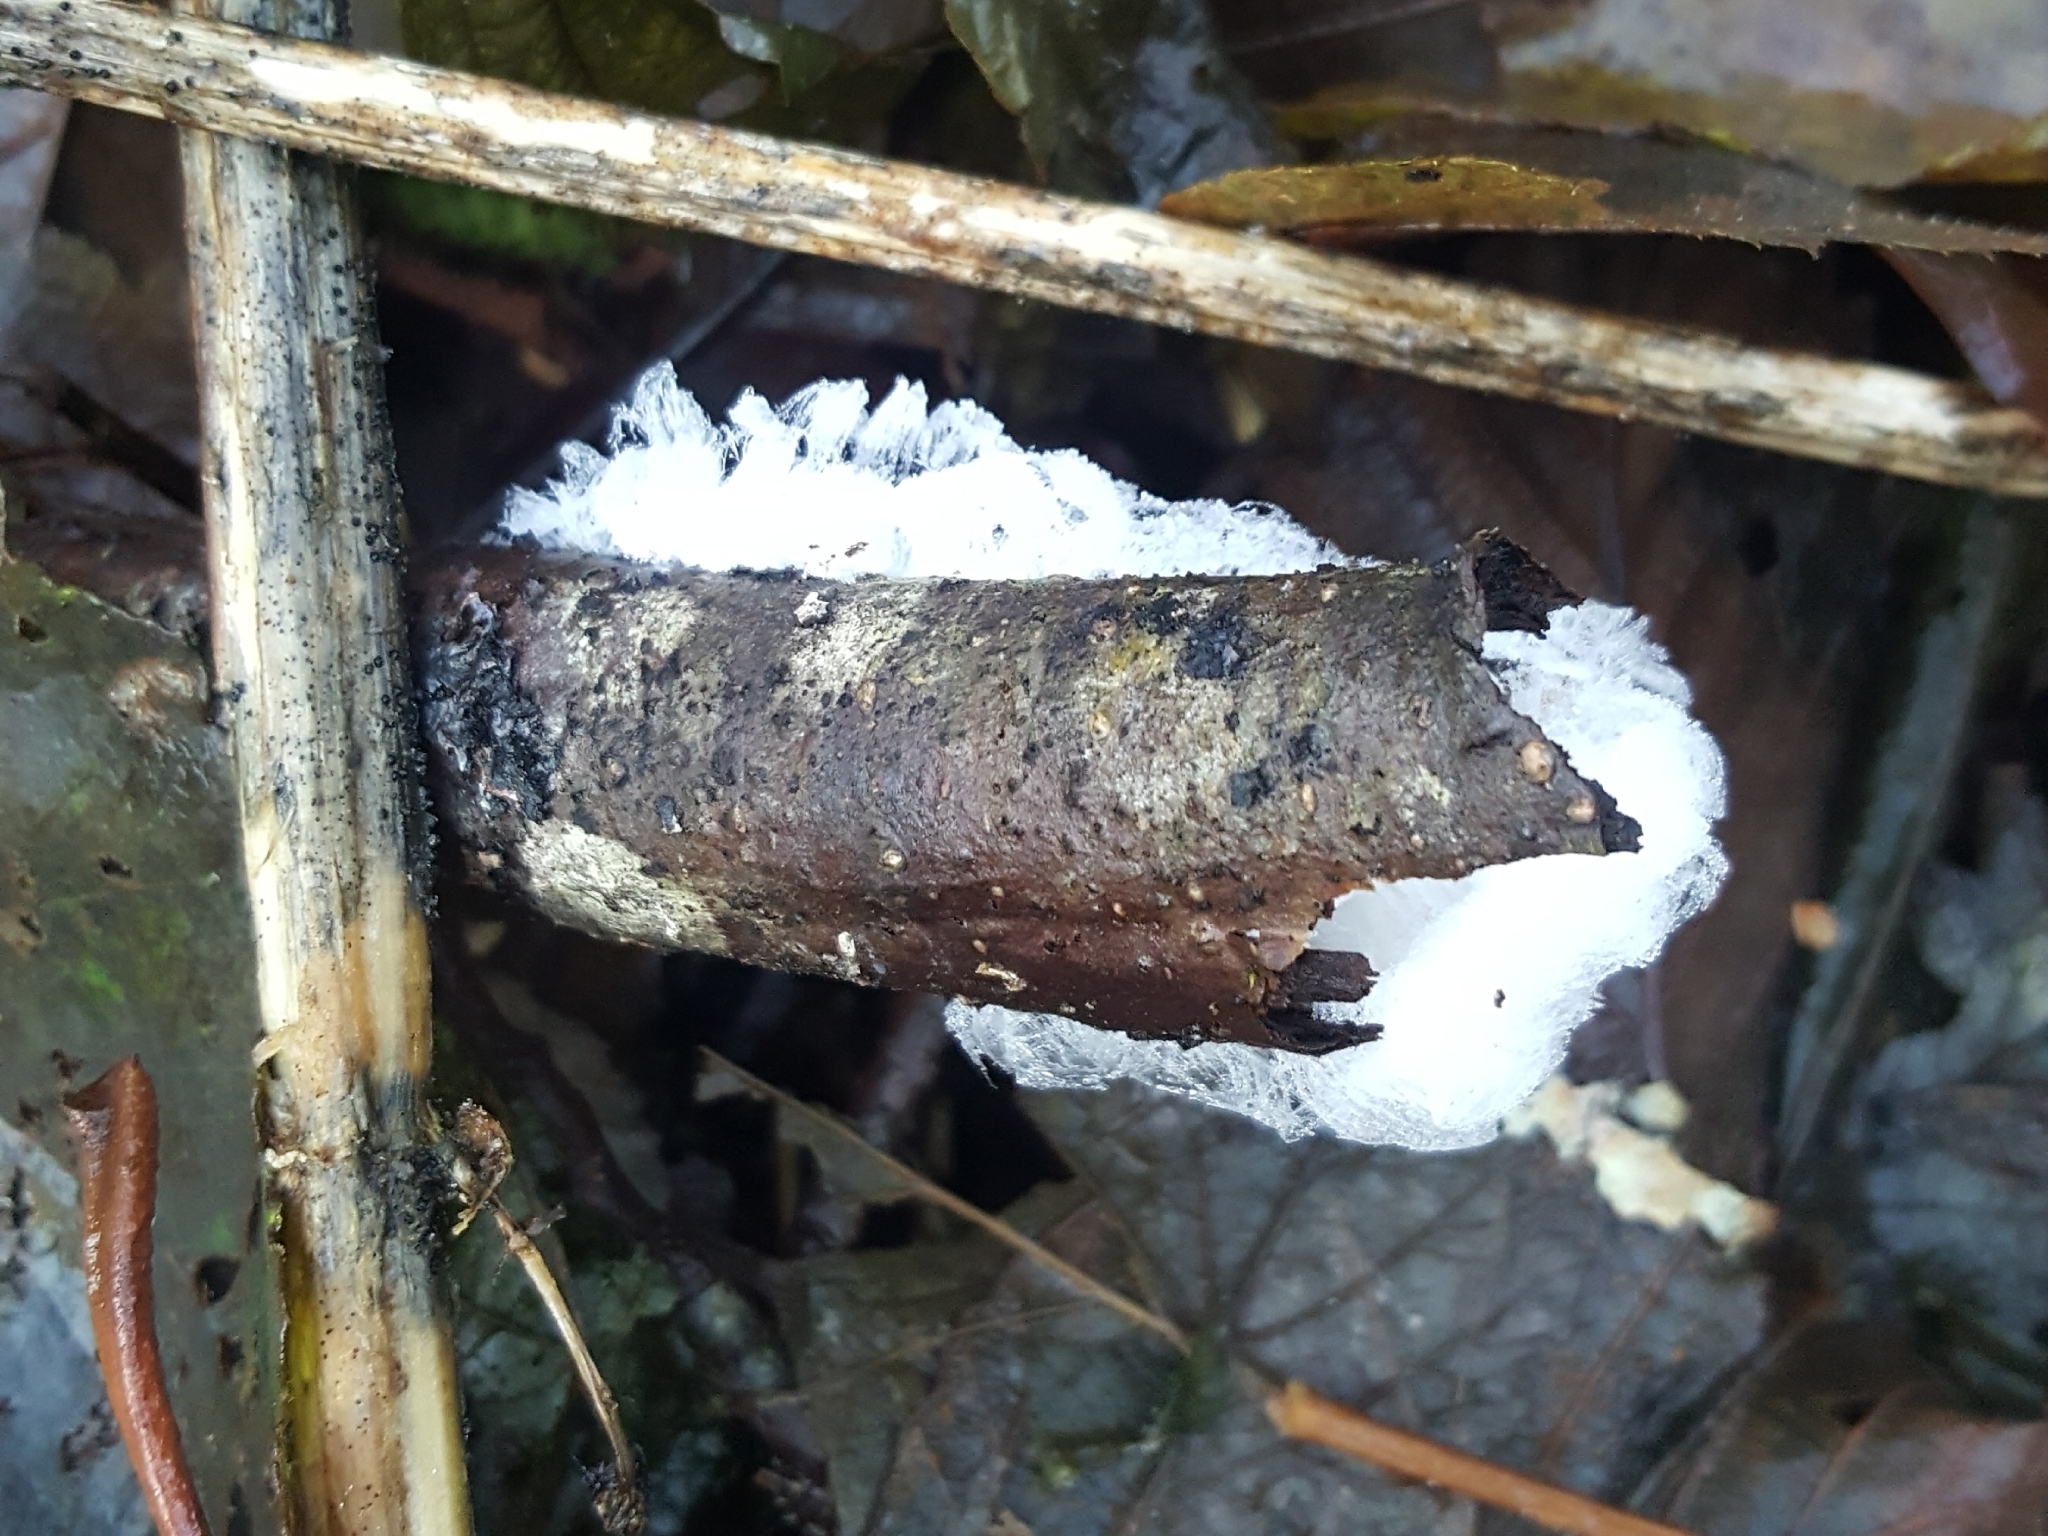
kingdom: Fungi
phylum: Basidiomycota
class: Agaricomycetes
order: Auriculariales
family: Auriculariaceae
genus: Exidiopsis
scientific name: Exidiopsis effusa
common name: Hair ice crust
